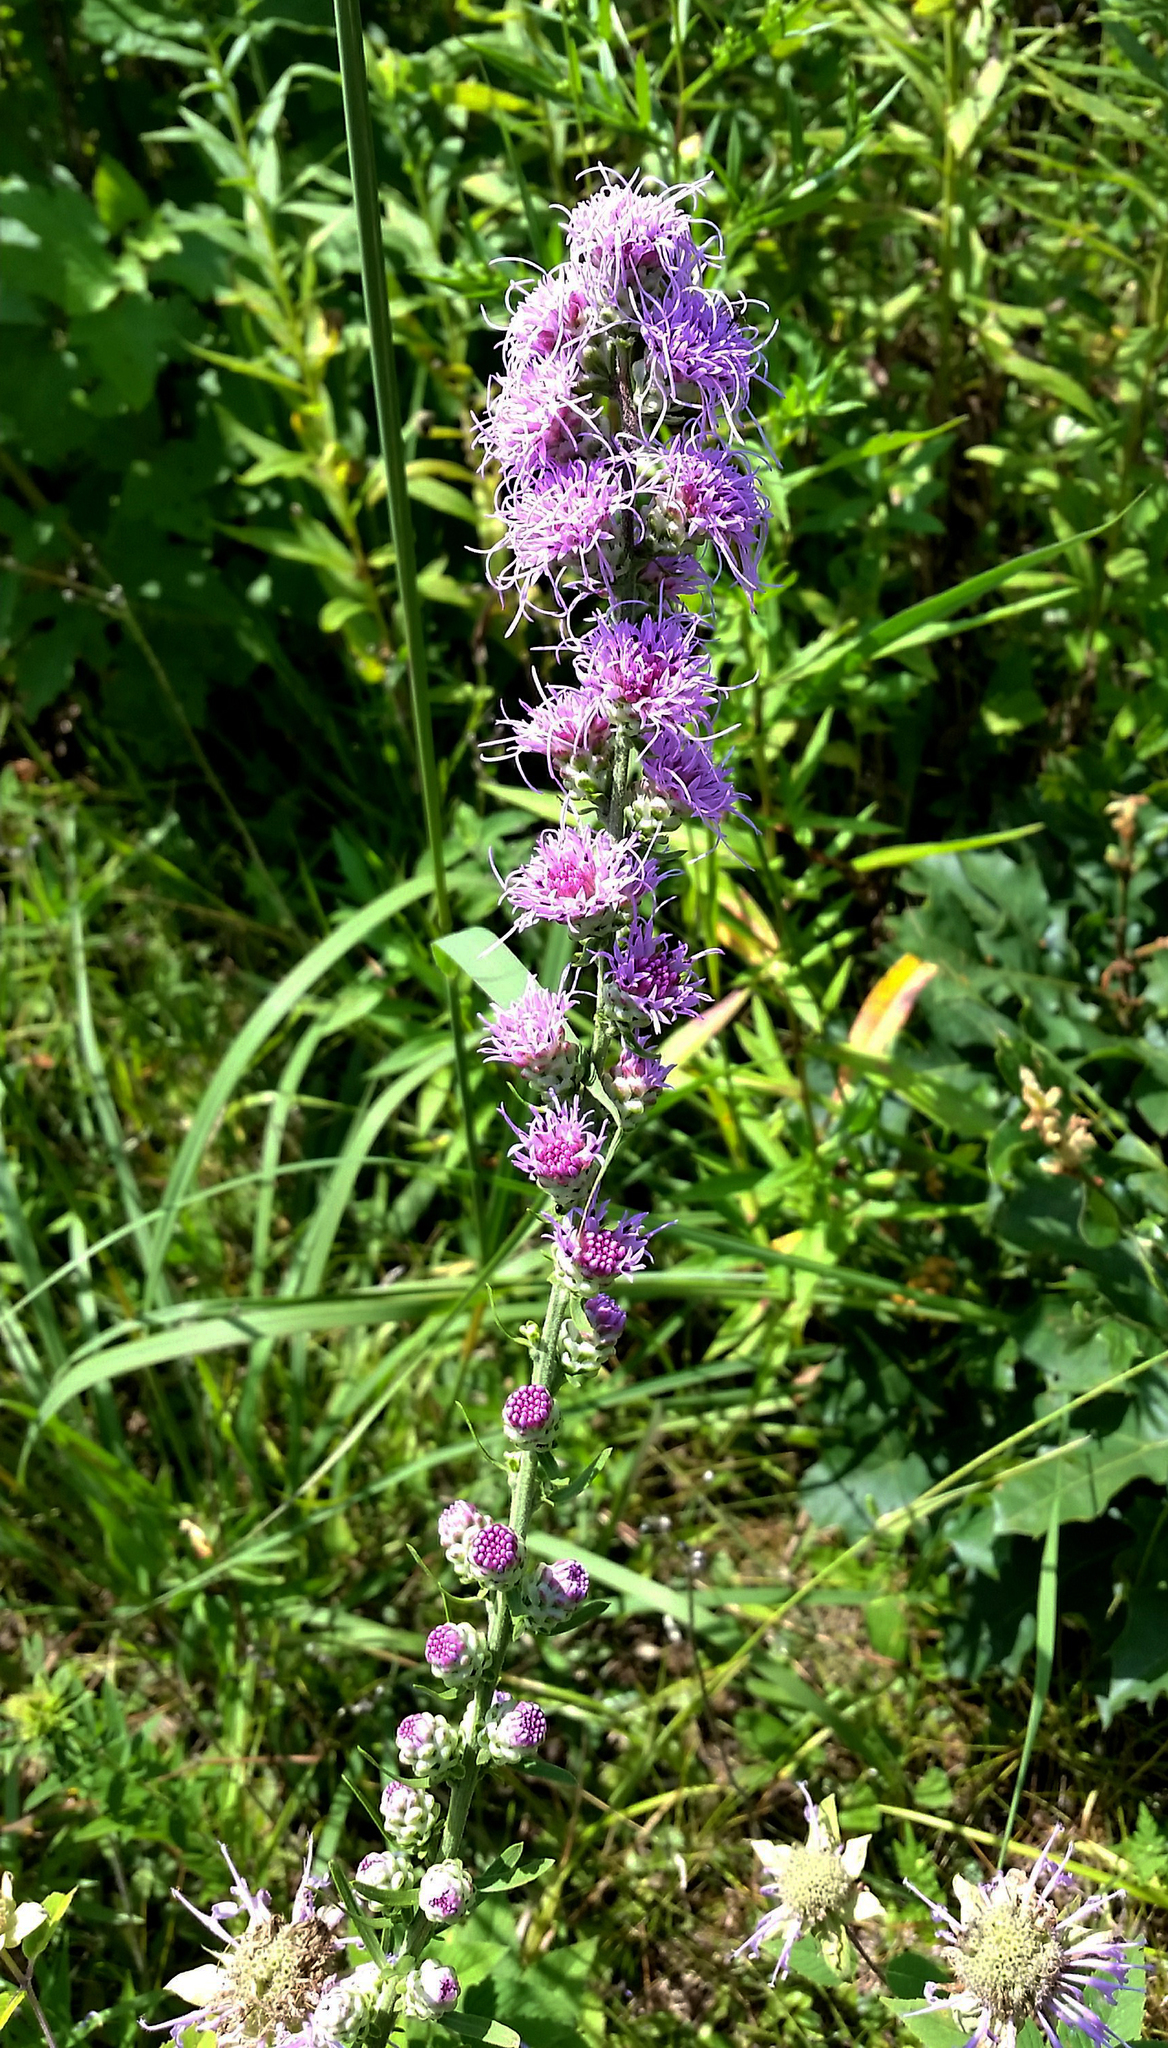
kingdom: Plantae
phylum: Tracheophyta
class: Magnoliopsida
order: Asterales
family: Asteraceae
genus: Liatris
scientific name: Liatris aspera
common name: Lacerate blazing-star
